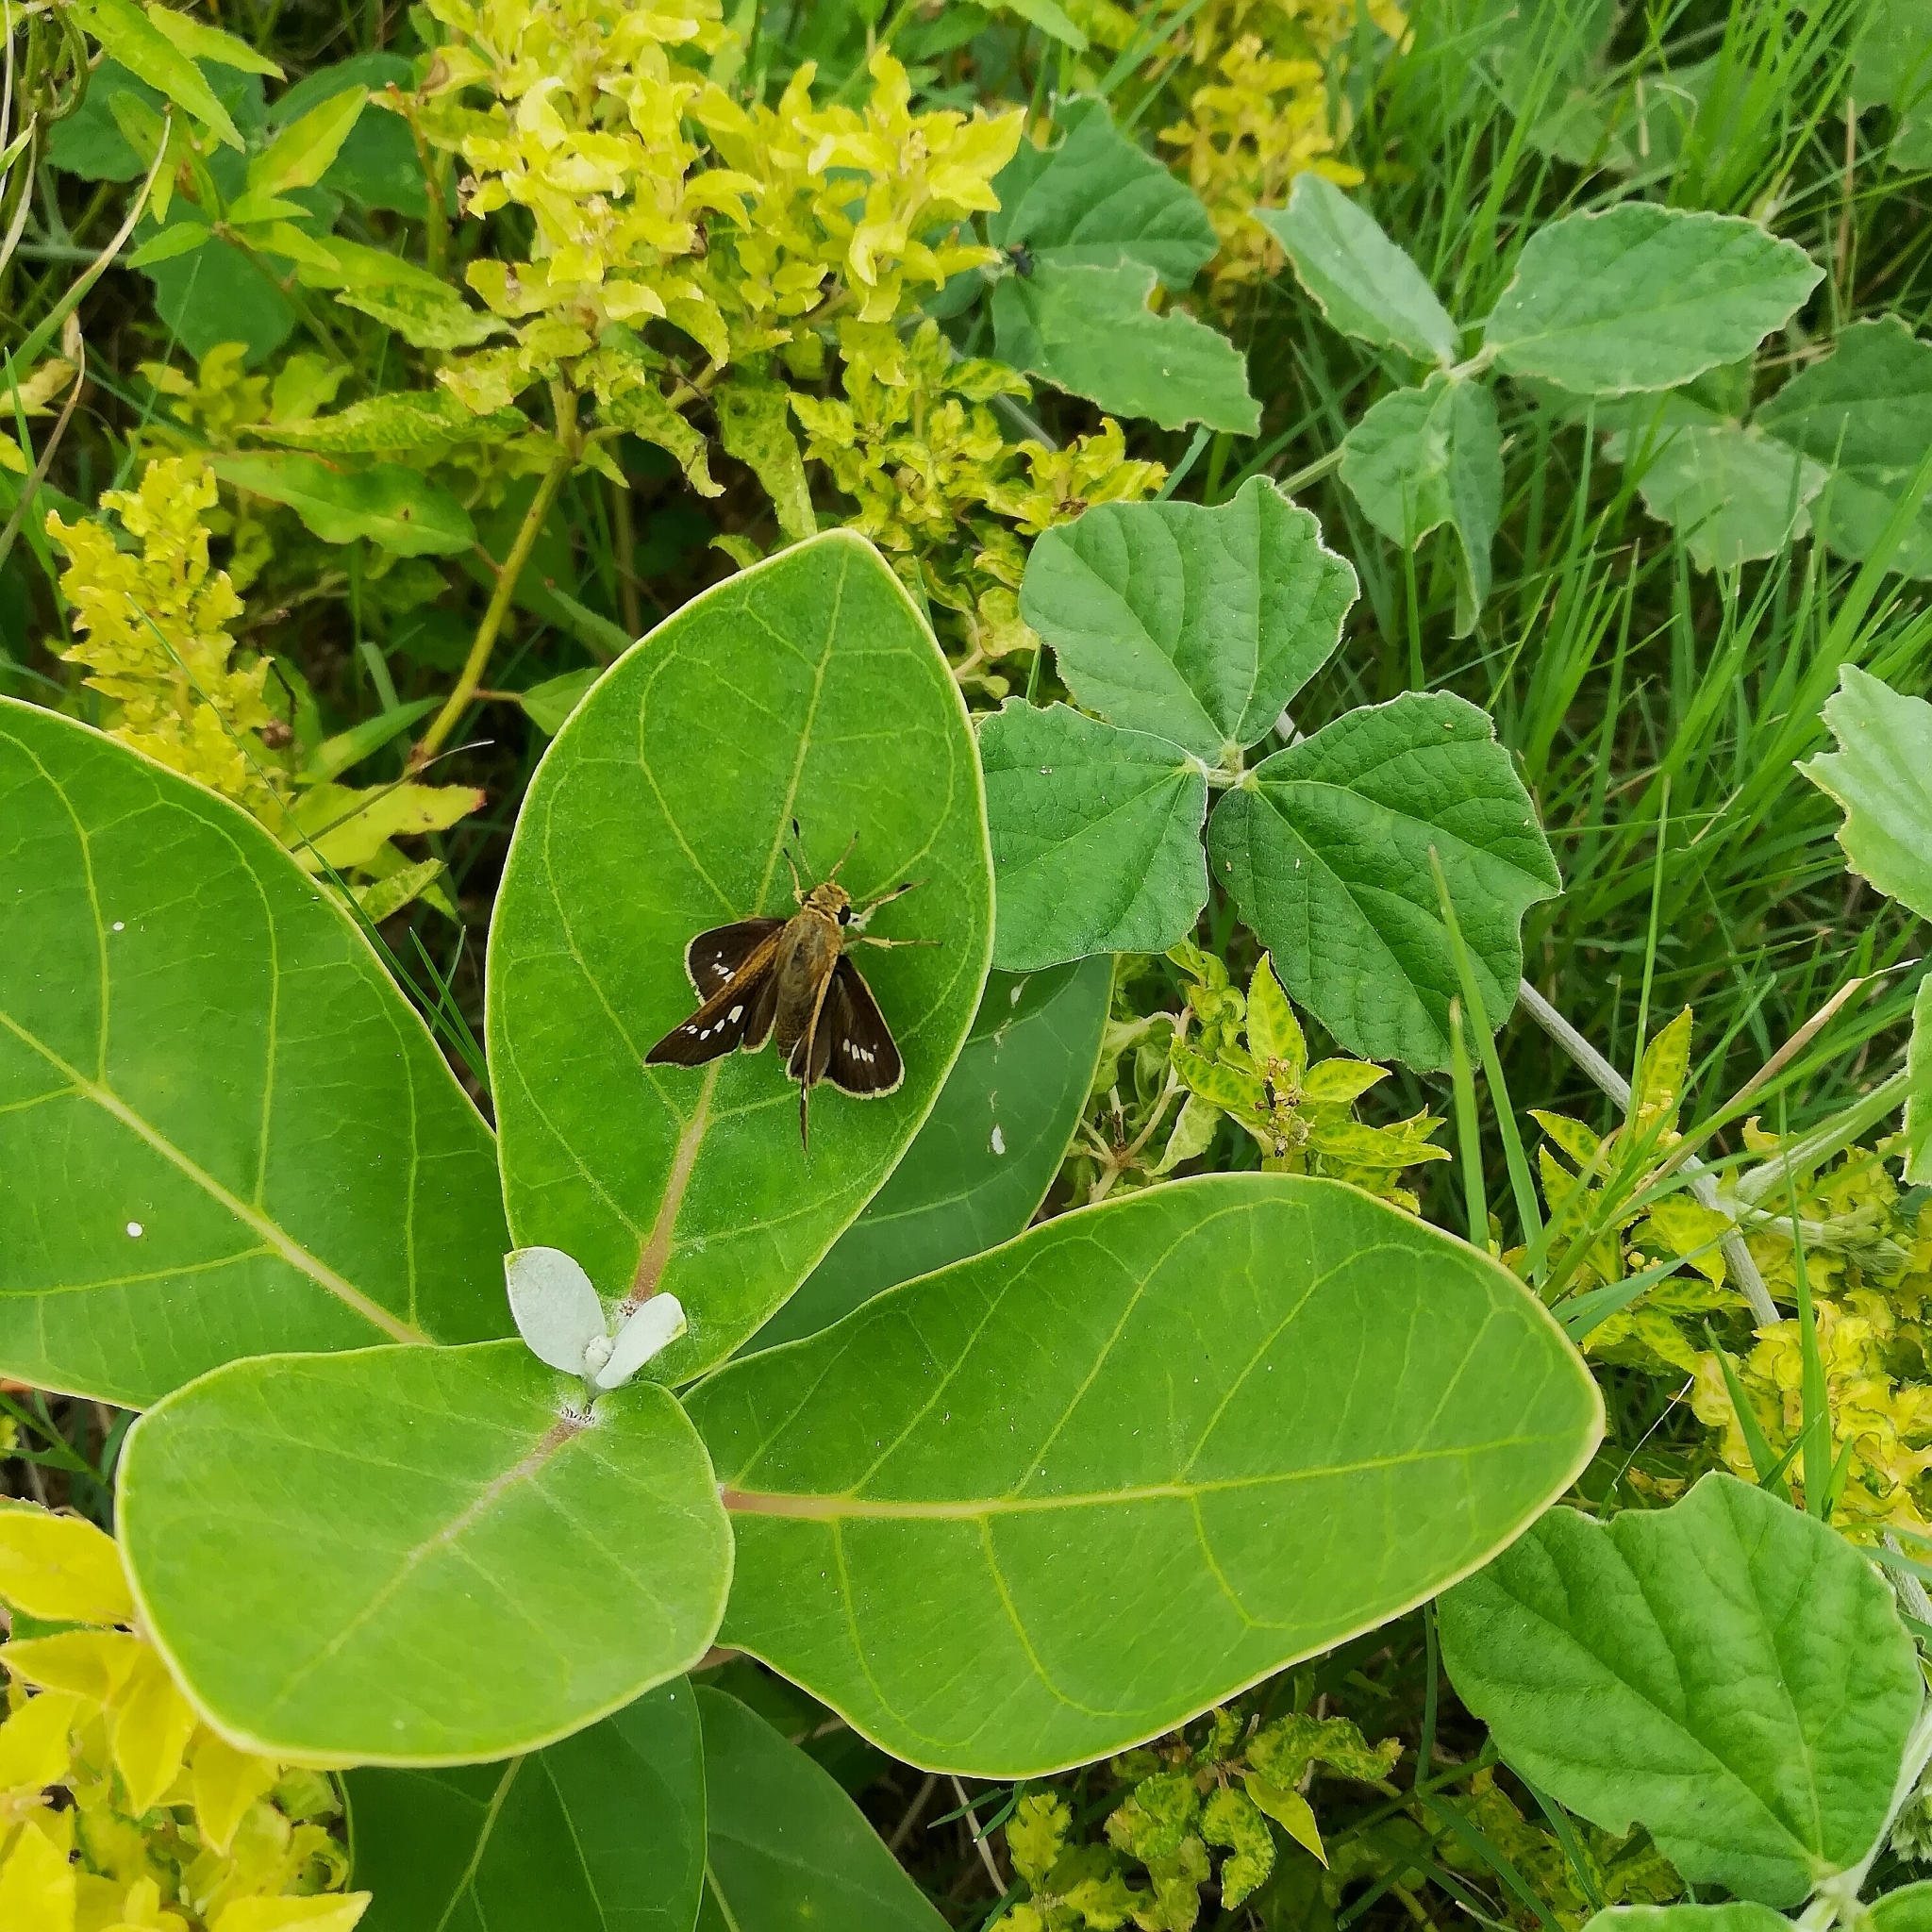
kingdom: Animalia
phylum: Arthropoda
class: Insecta
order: Lepidoptera
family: Hesperiidae
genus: Parnara
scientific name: Parnara naso
